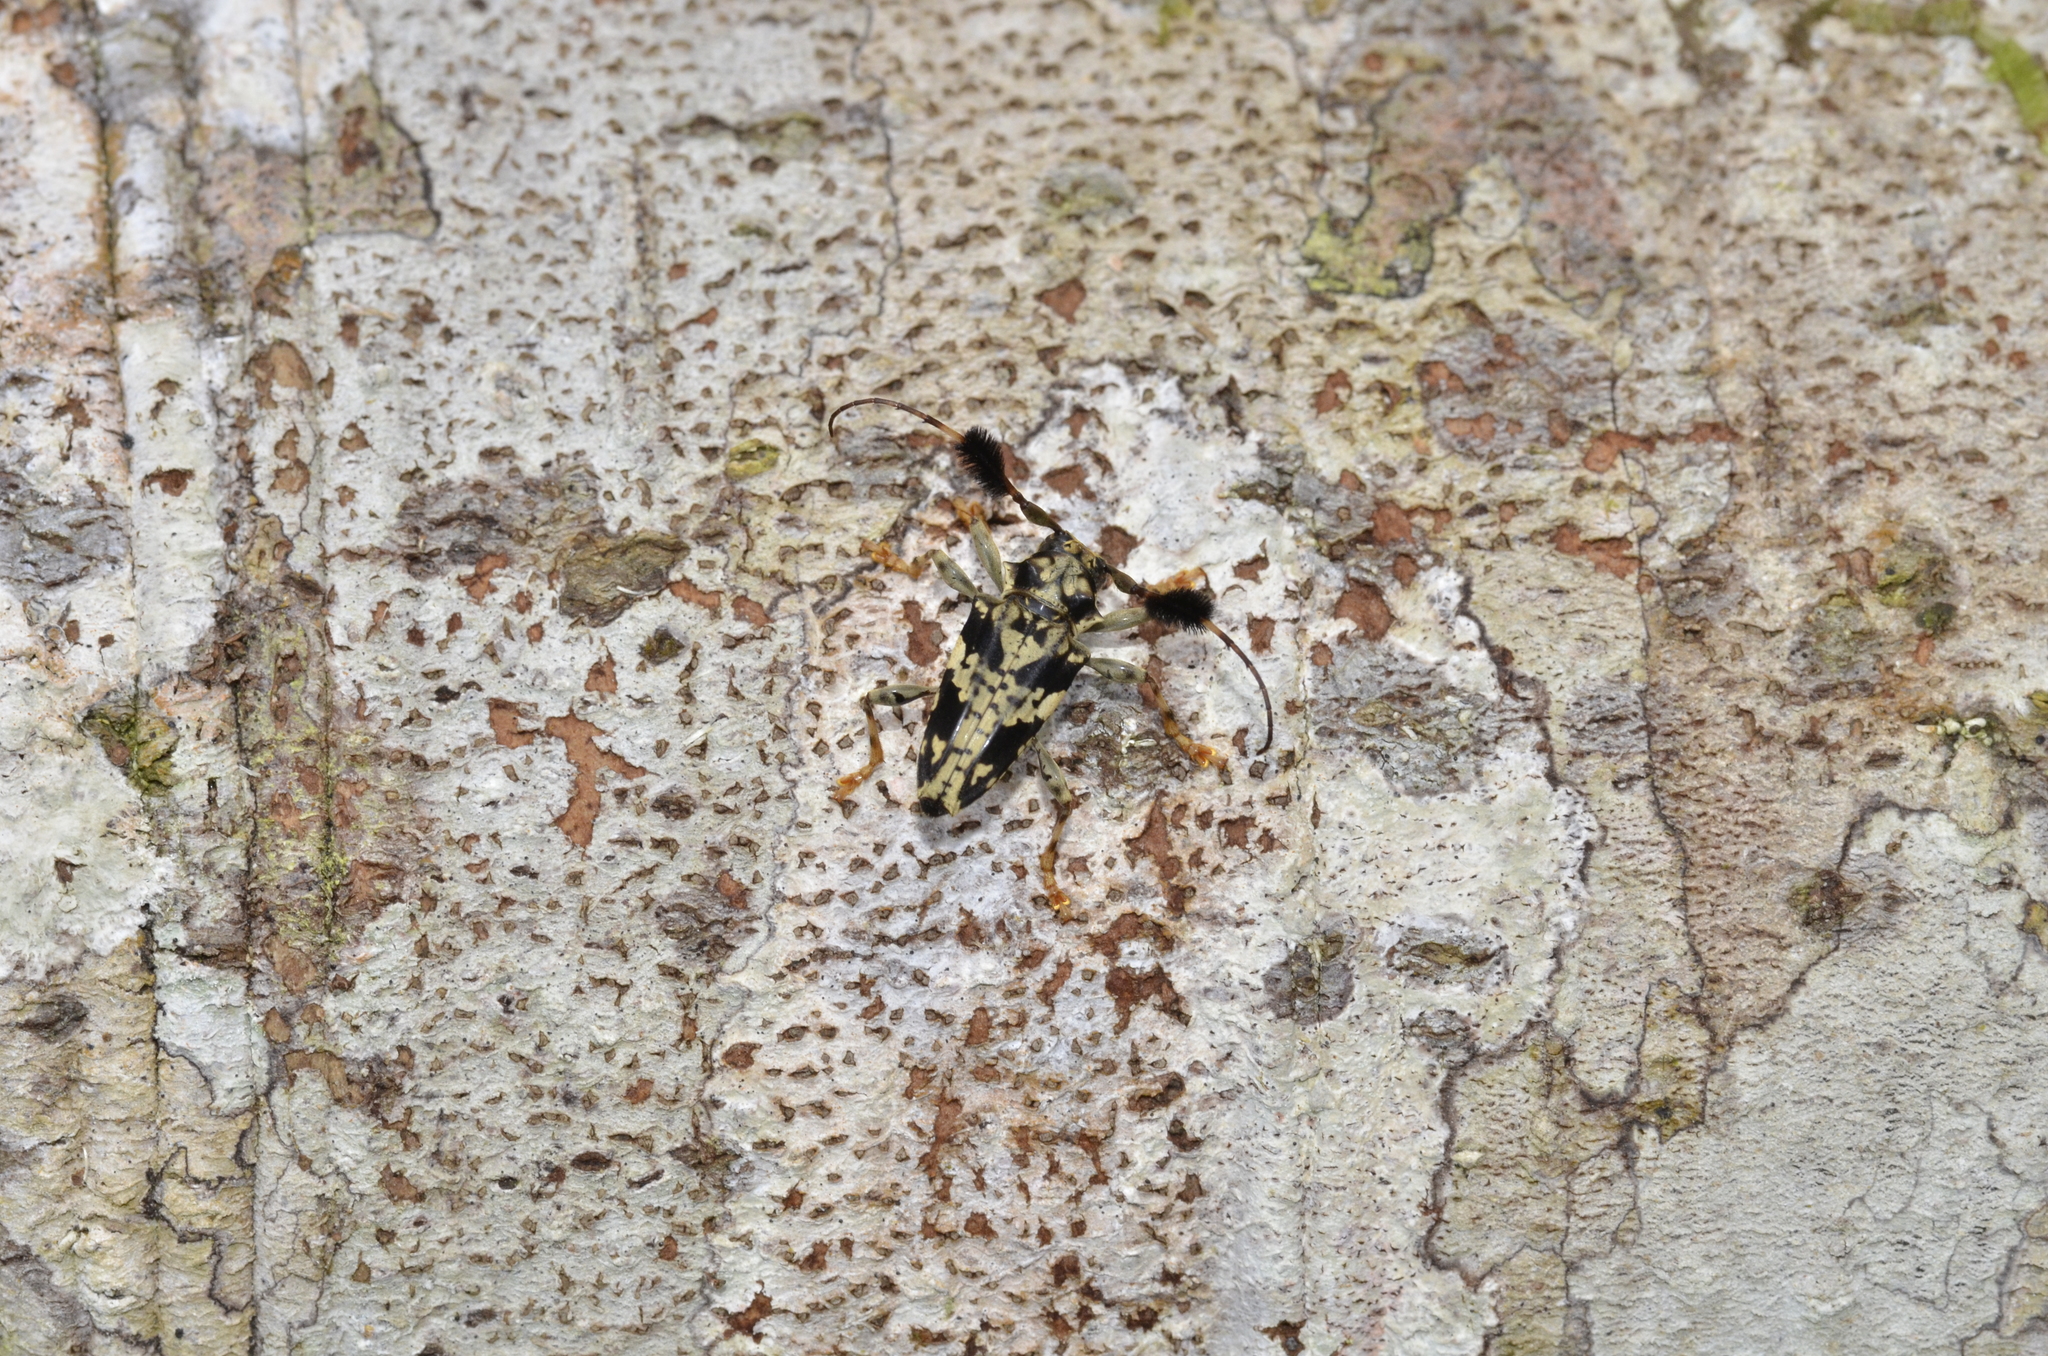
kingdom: Animalia
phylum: Arthropoda
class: Insecta
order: Coleoptera
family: Cerambycidae
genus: Discopus
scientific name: Discopus comes
